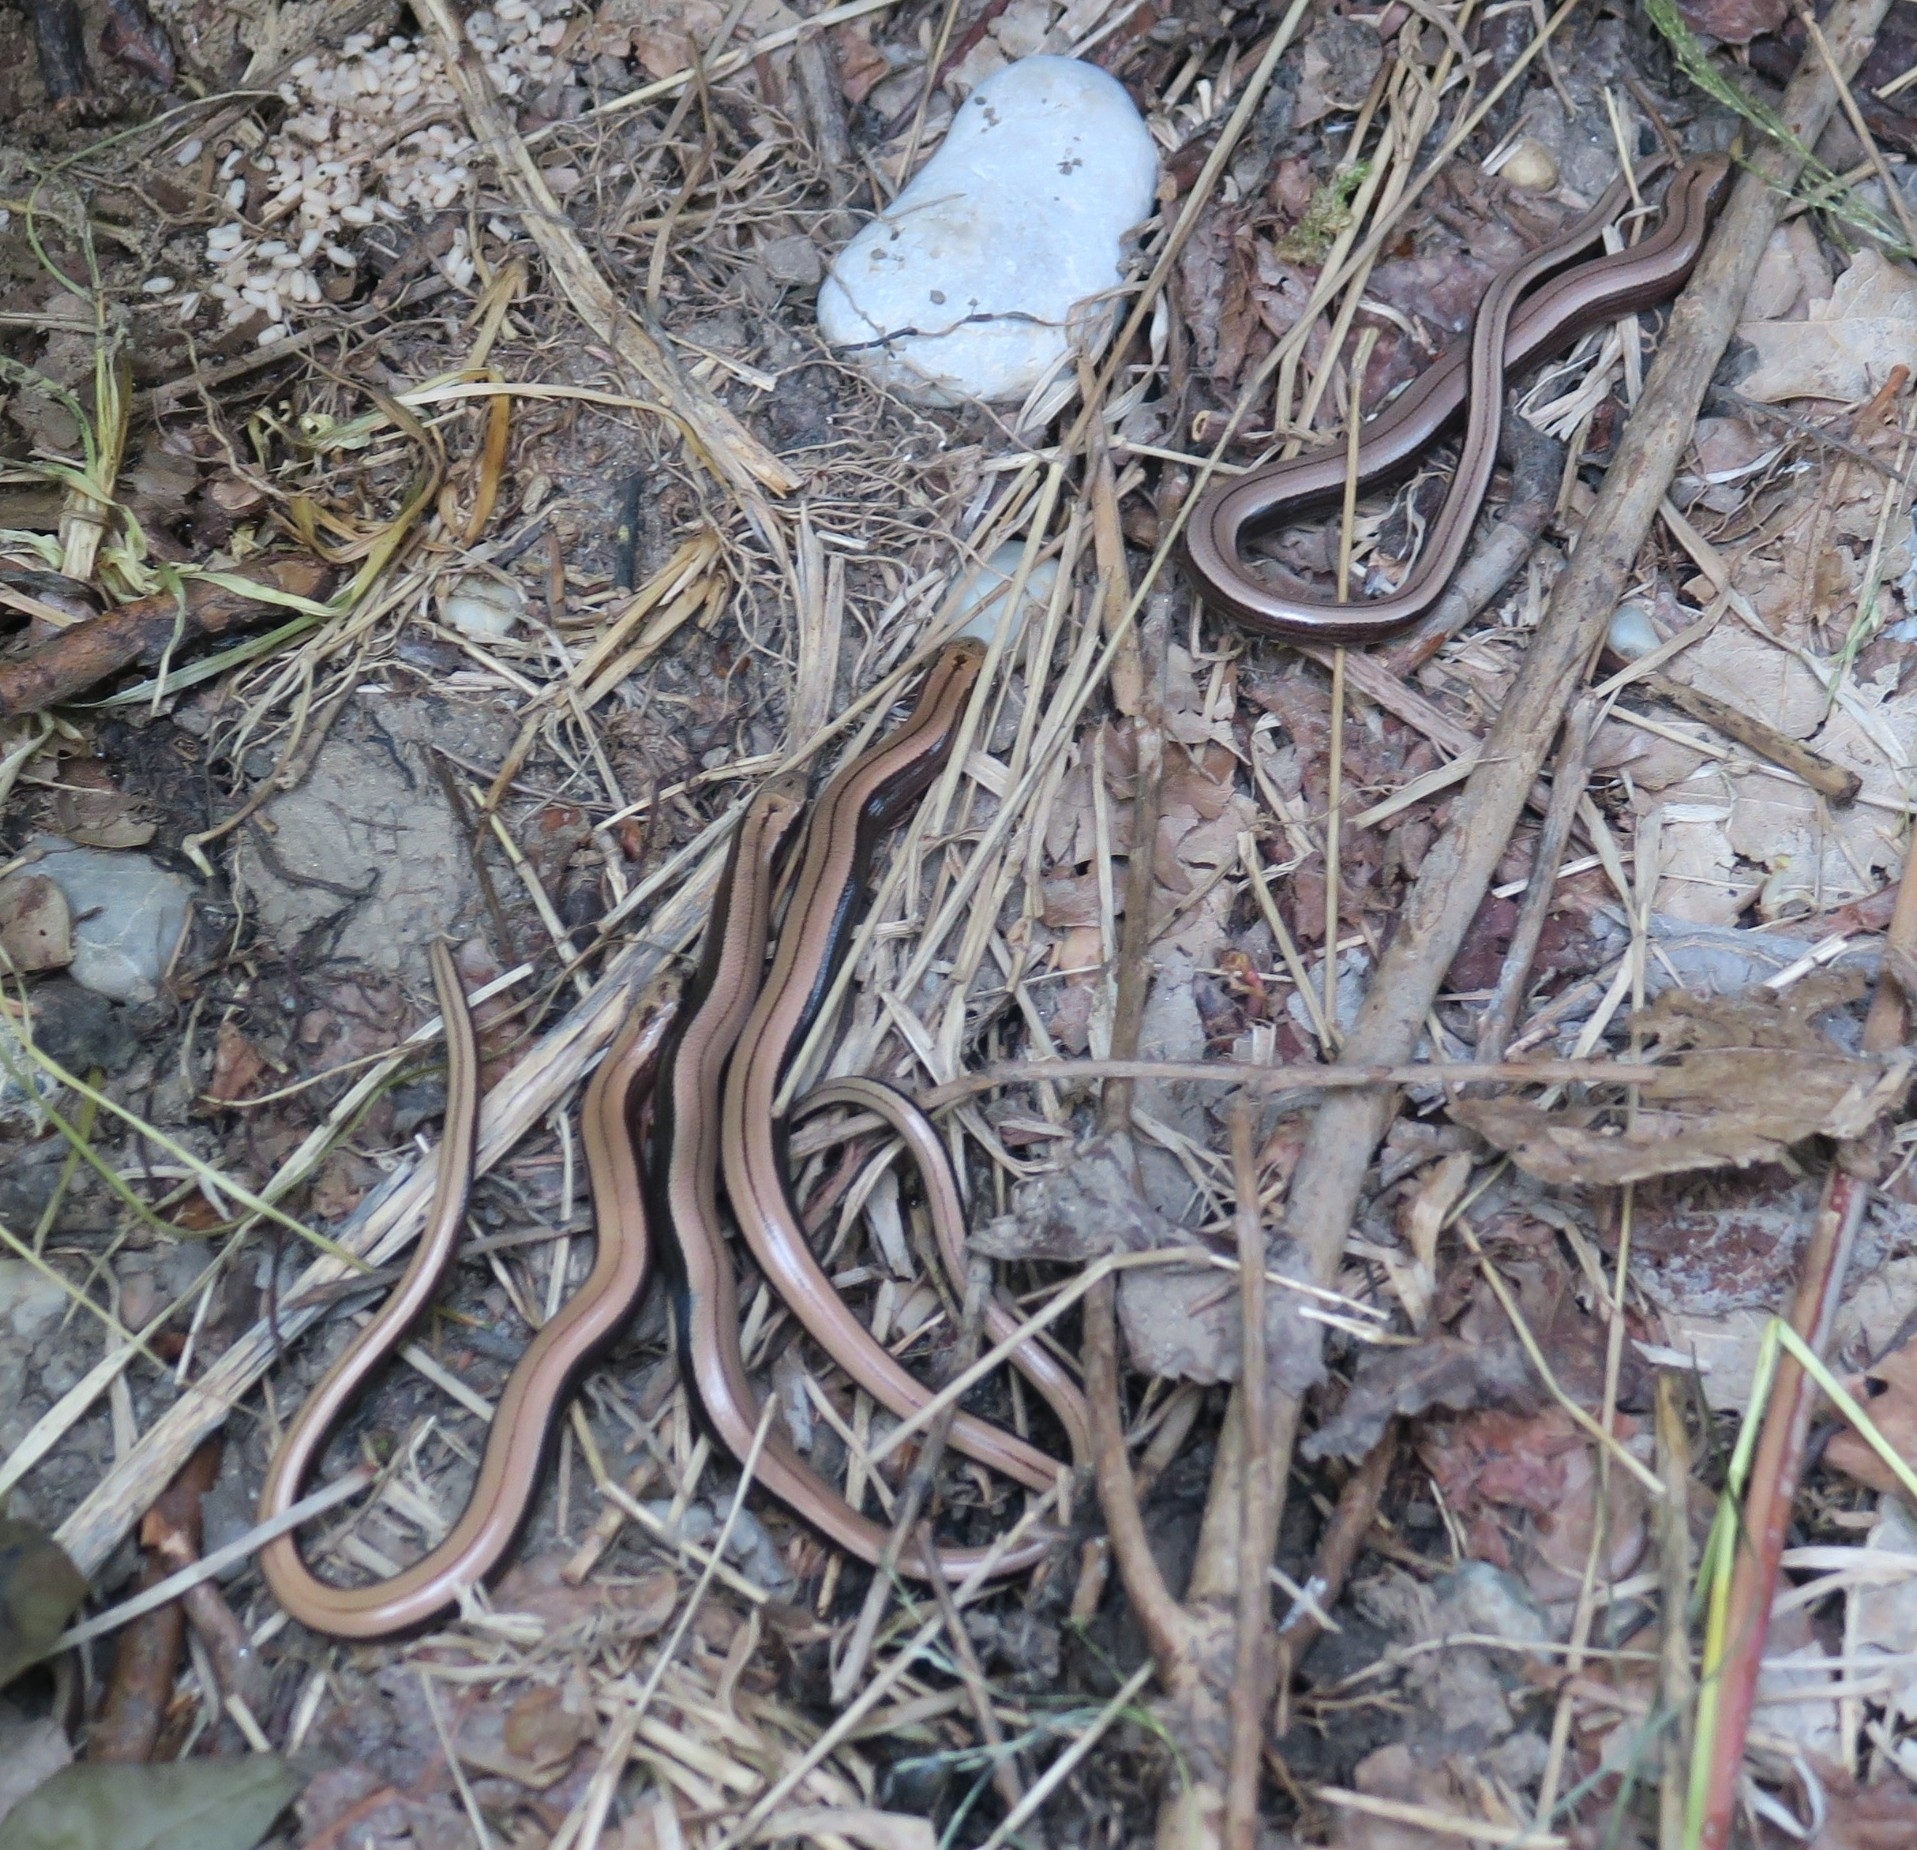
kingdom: Animalia
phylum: Chordata
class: Squamata
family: Anguidae
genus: Anguis
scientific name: Anguis fragilis
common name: Slow worm
